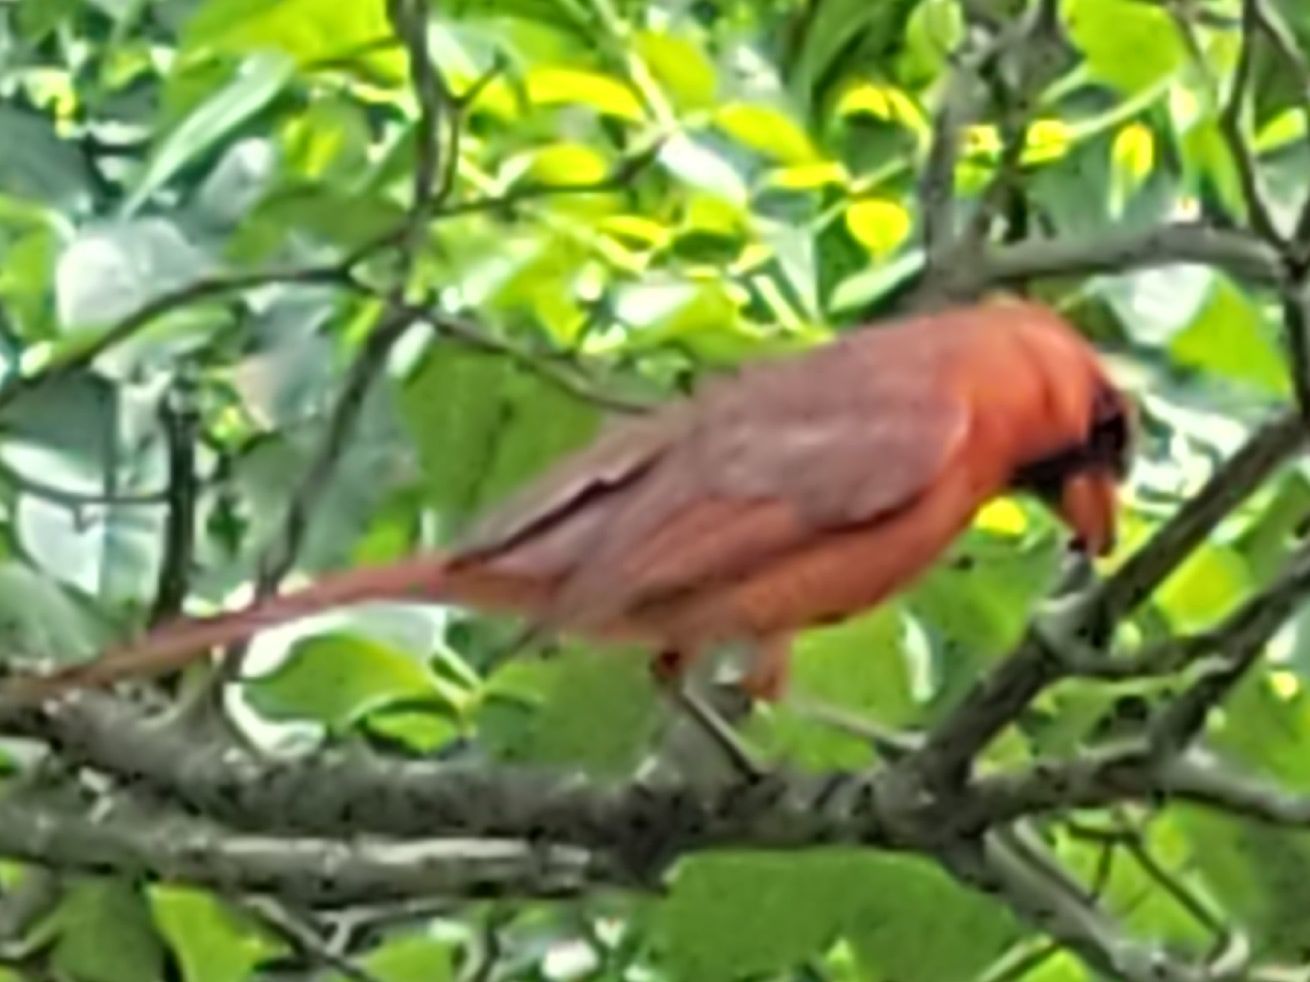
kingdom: Animalia
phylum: Chordata
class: Aves
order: Passeriformes
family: Cardinalidae
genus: Cardinalis
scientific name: Cardinalis cardinalis
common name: Northern cardinal
